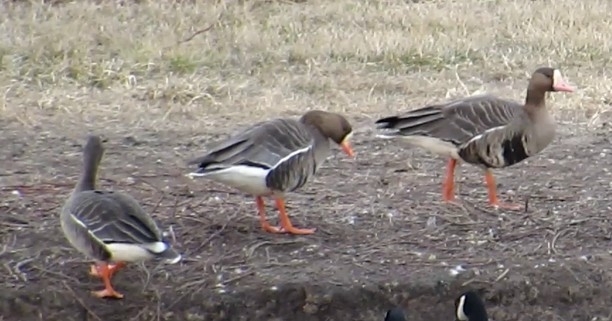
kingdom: Animalia
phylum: Chordata
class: Aves
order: Anseriformes
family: Anatidae
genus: Anser
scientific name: Anser albifrons
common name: Greater white-fronted goose
